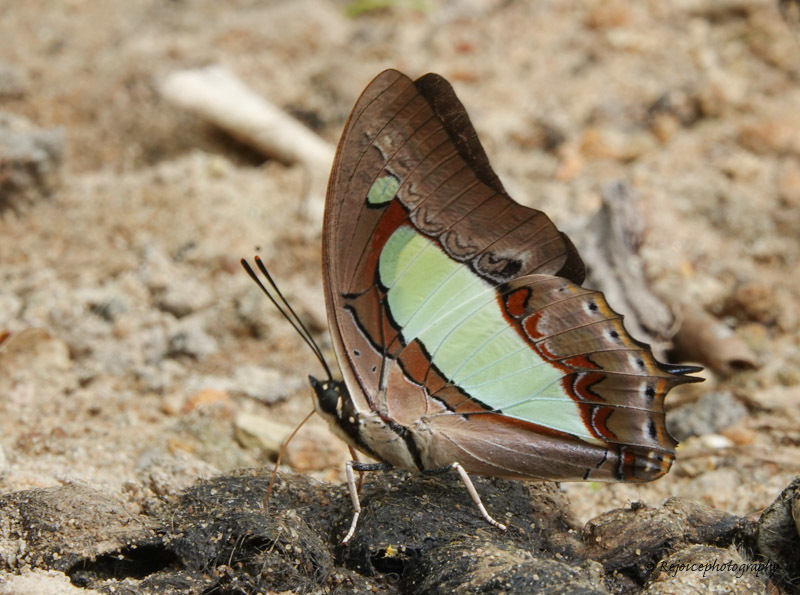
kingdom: Animalia
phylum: Arthropoda
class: Insecta
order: Lepidoptera
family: Nymphalidae
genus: Polyura
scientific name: Polyura athamas
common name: Common nawab
